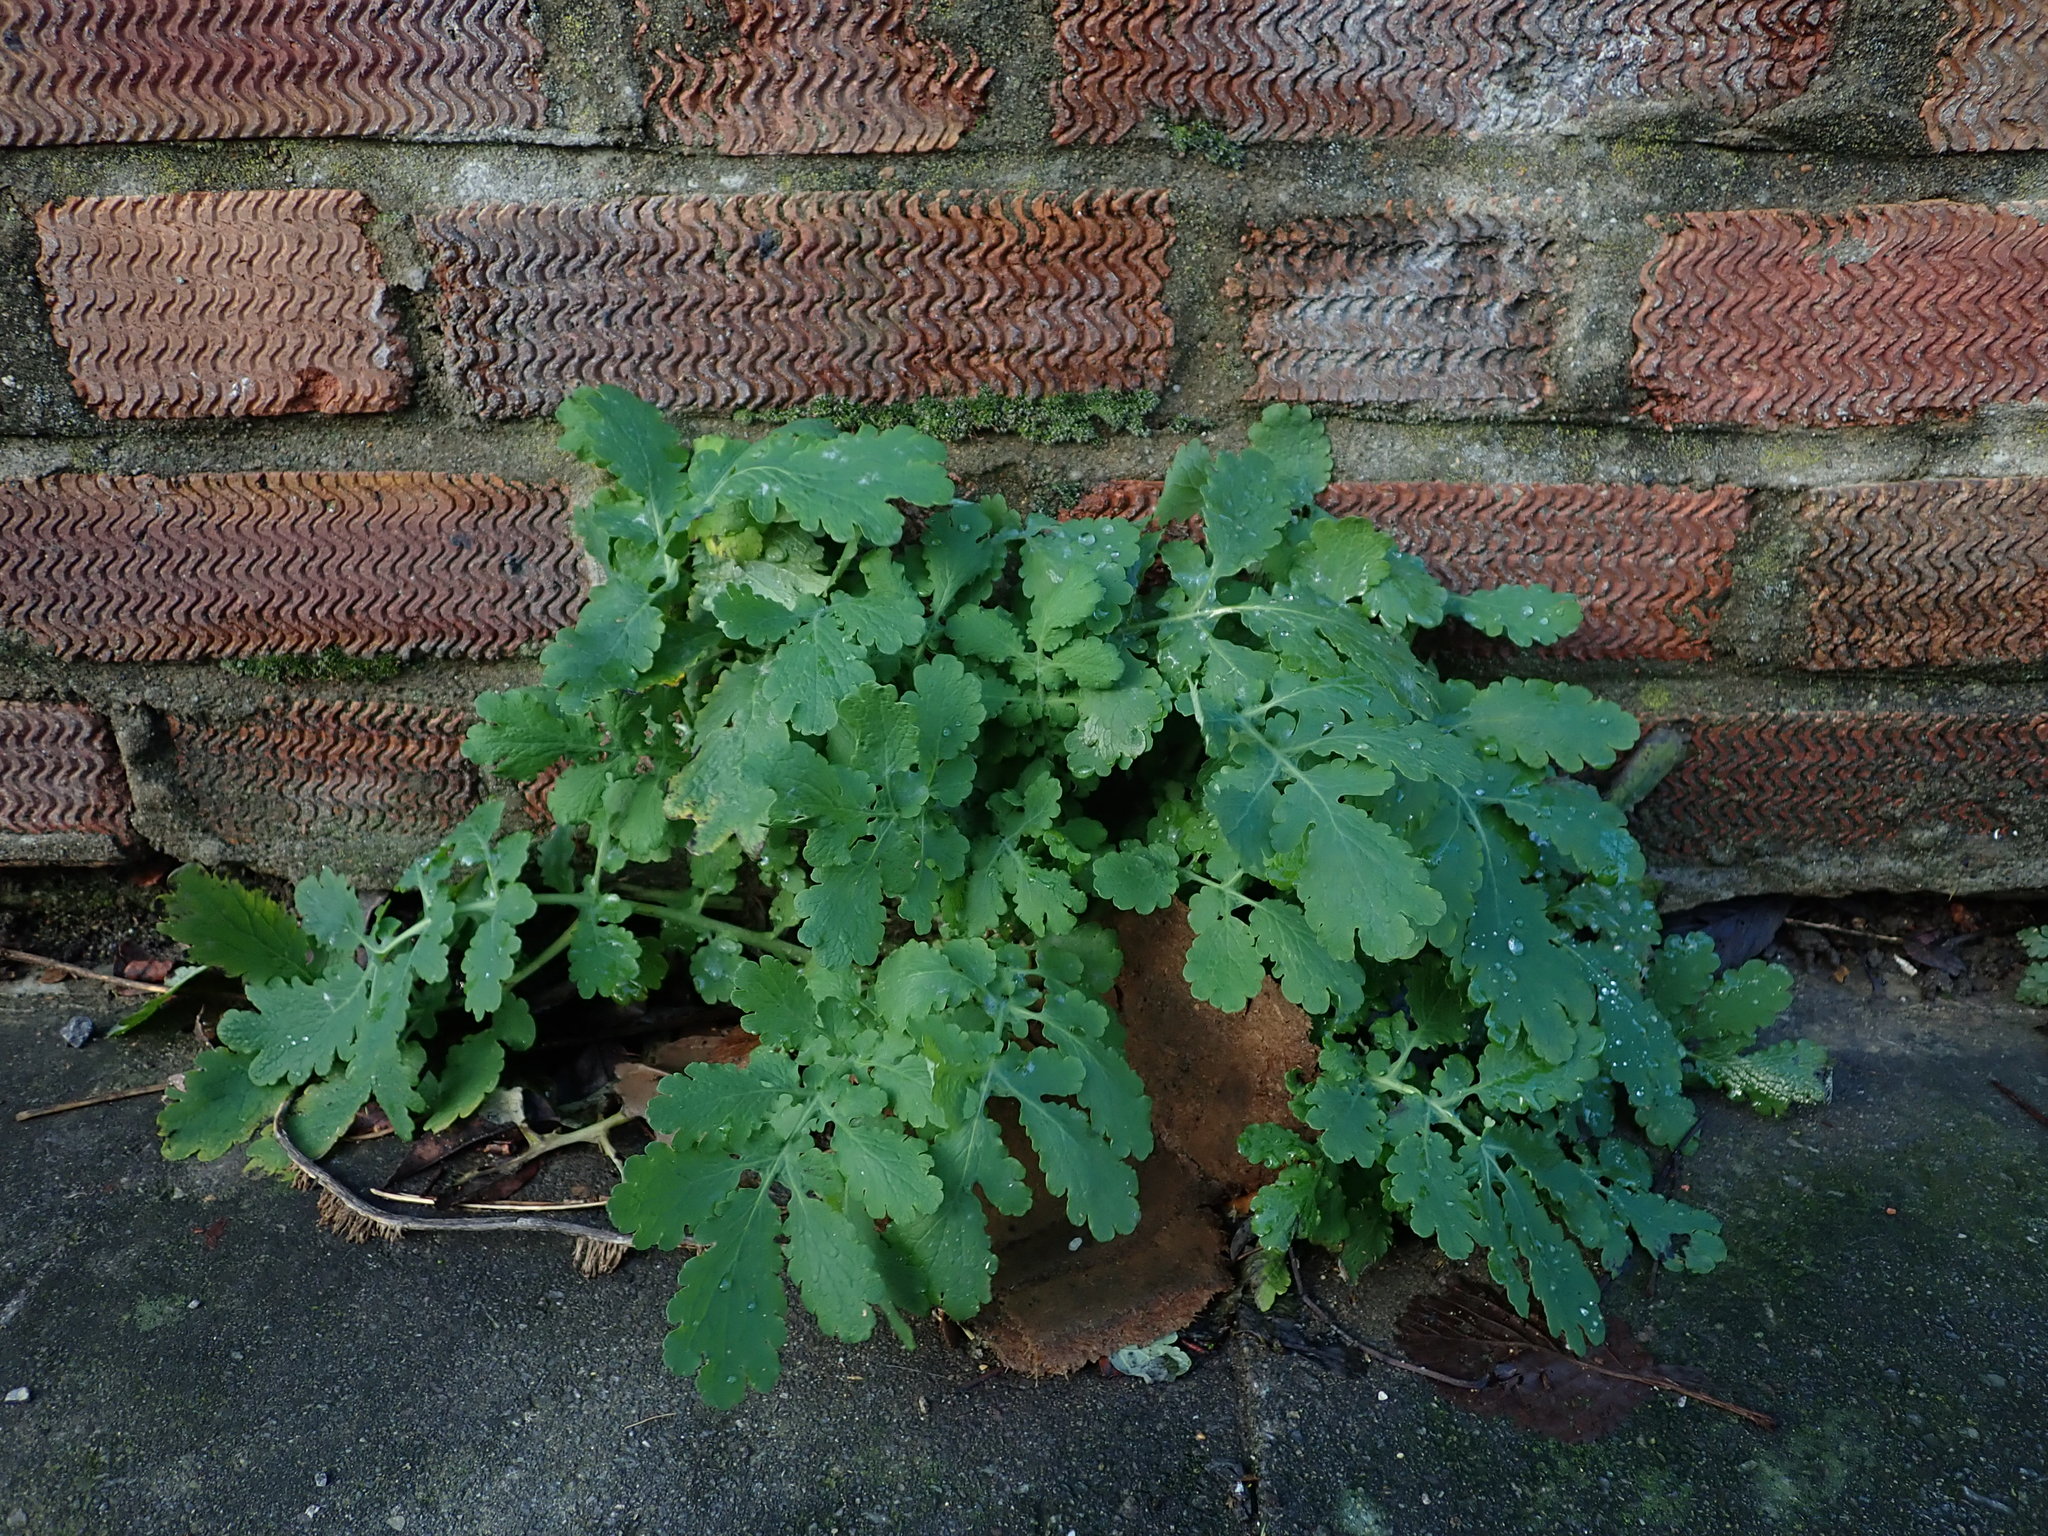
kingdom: Plantae
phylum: Tracheophyta
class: Magnoliopsida
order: Ranunculales
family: Papaveraceae
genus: Chelidonium
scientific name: Chelidonium majus
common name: Greater celandine
